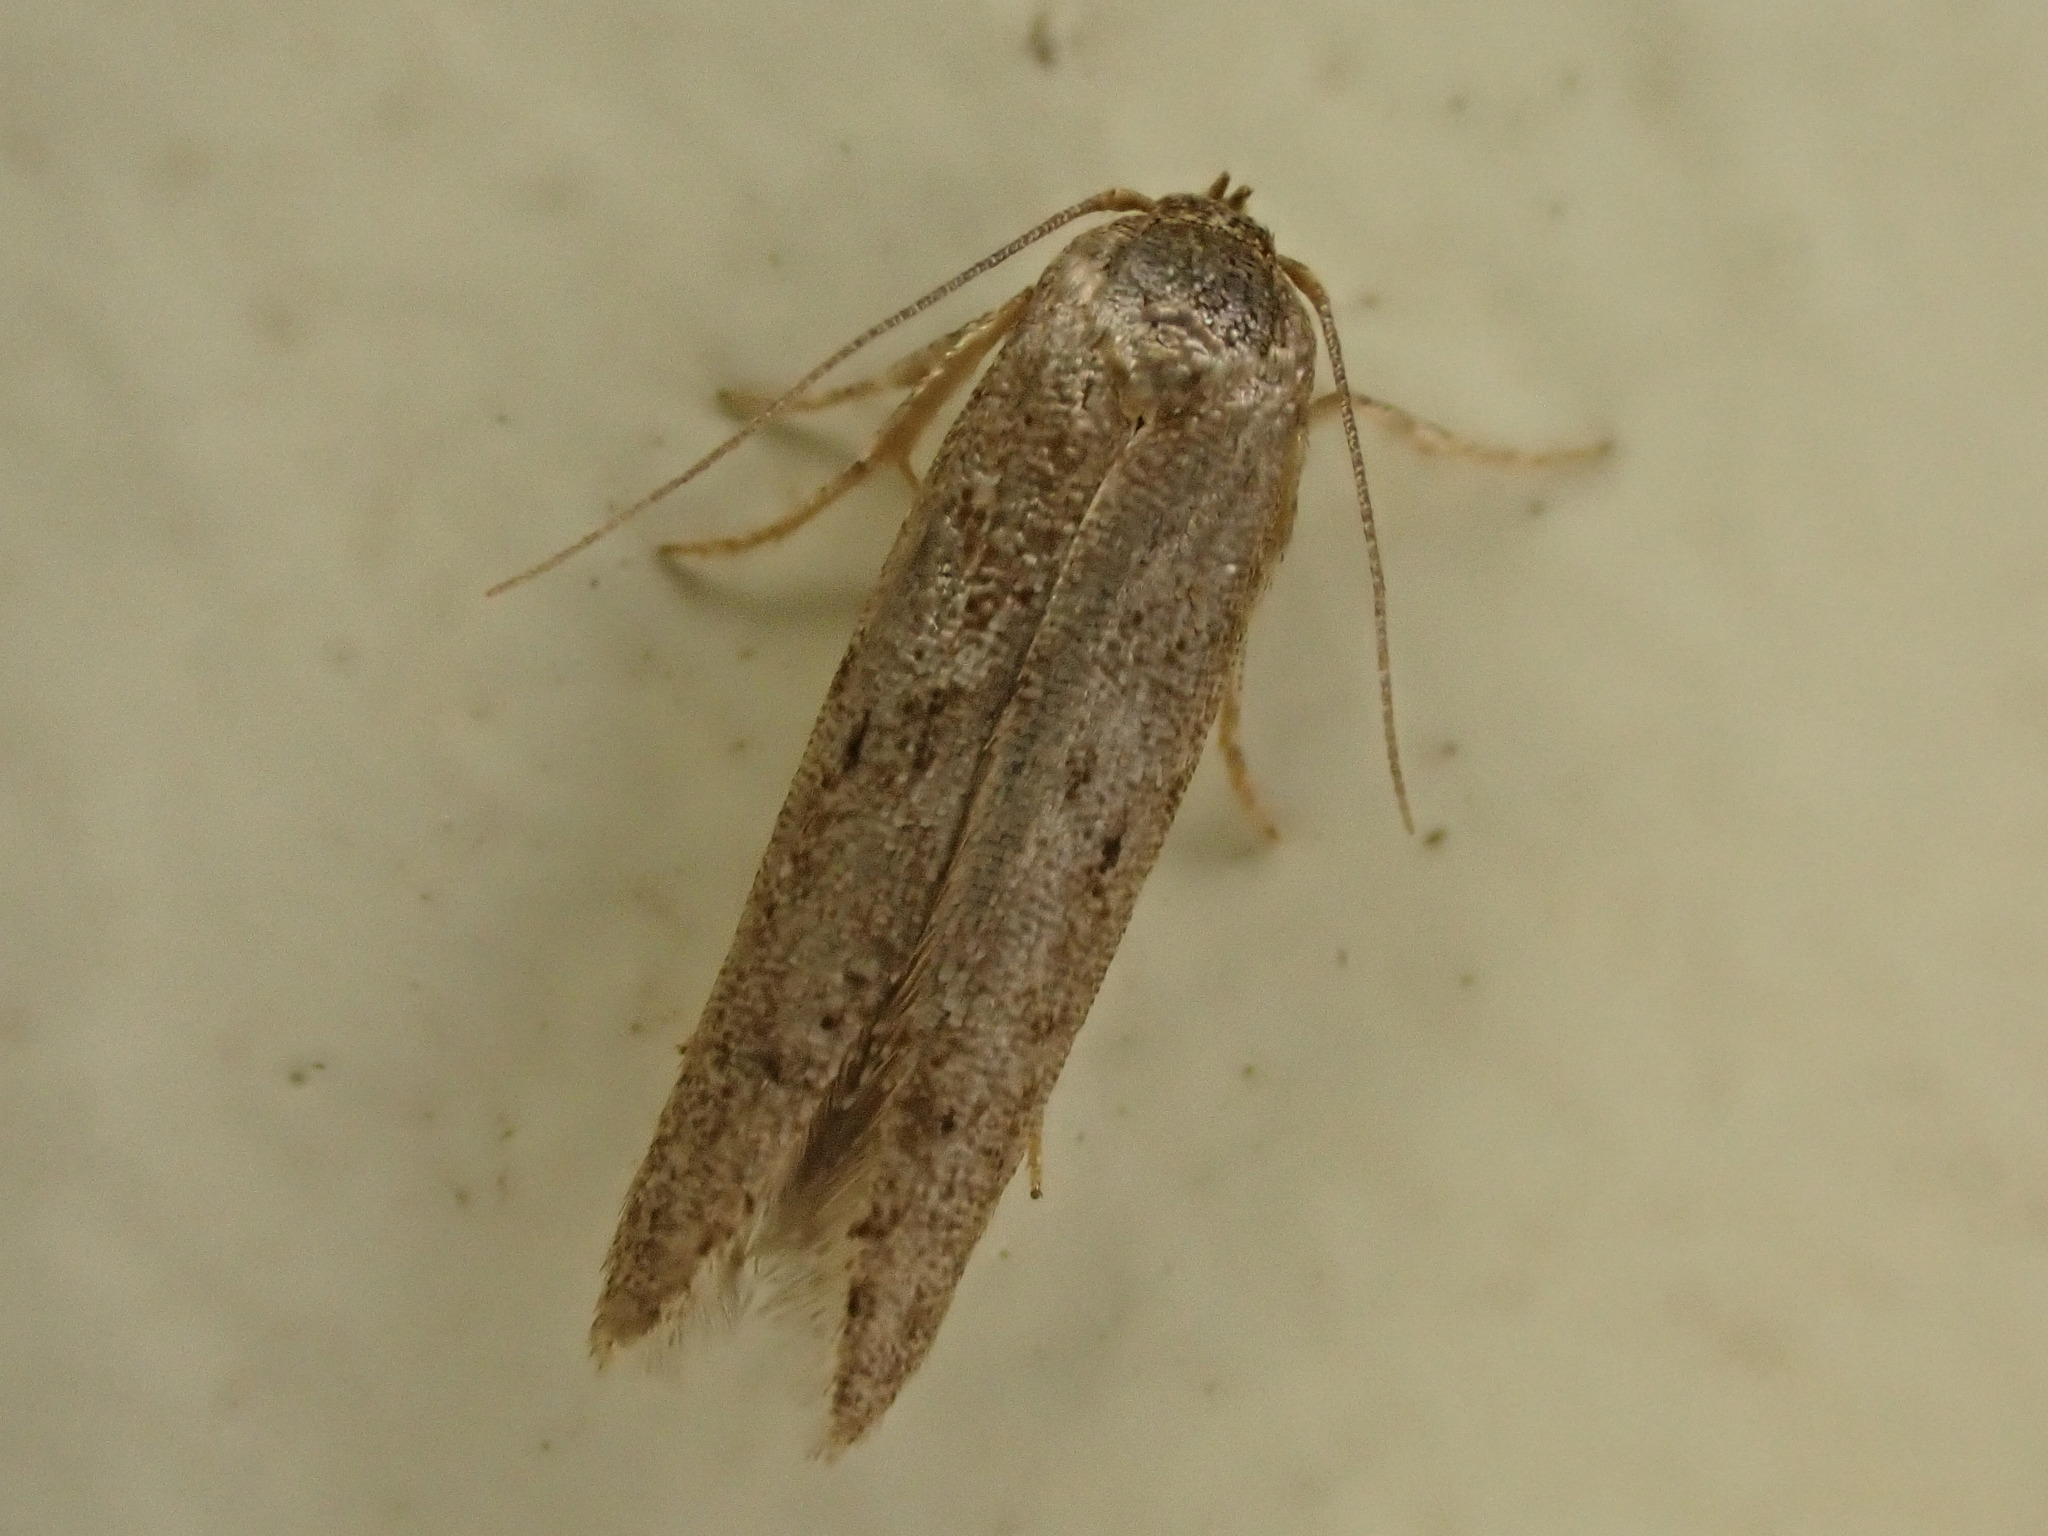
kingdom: Animalia
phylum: Arthropoda
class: Insecta
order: Lepidoptera
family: Blastobasidae
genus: Blastobasis
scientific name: Blastobasis tarda
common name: Blastobasid moth
